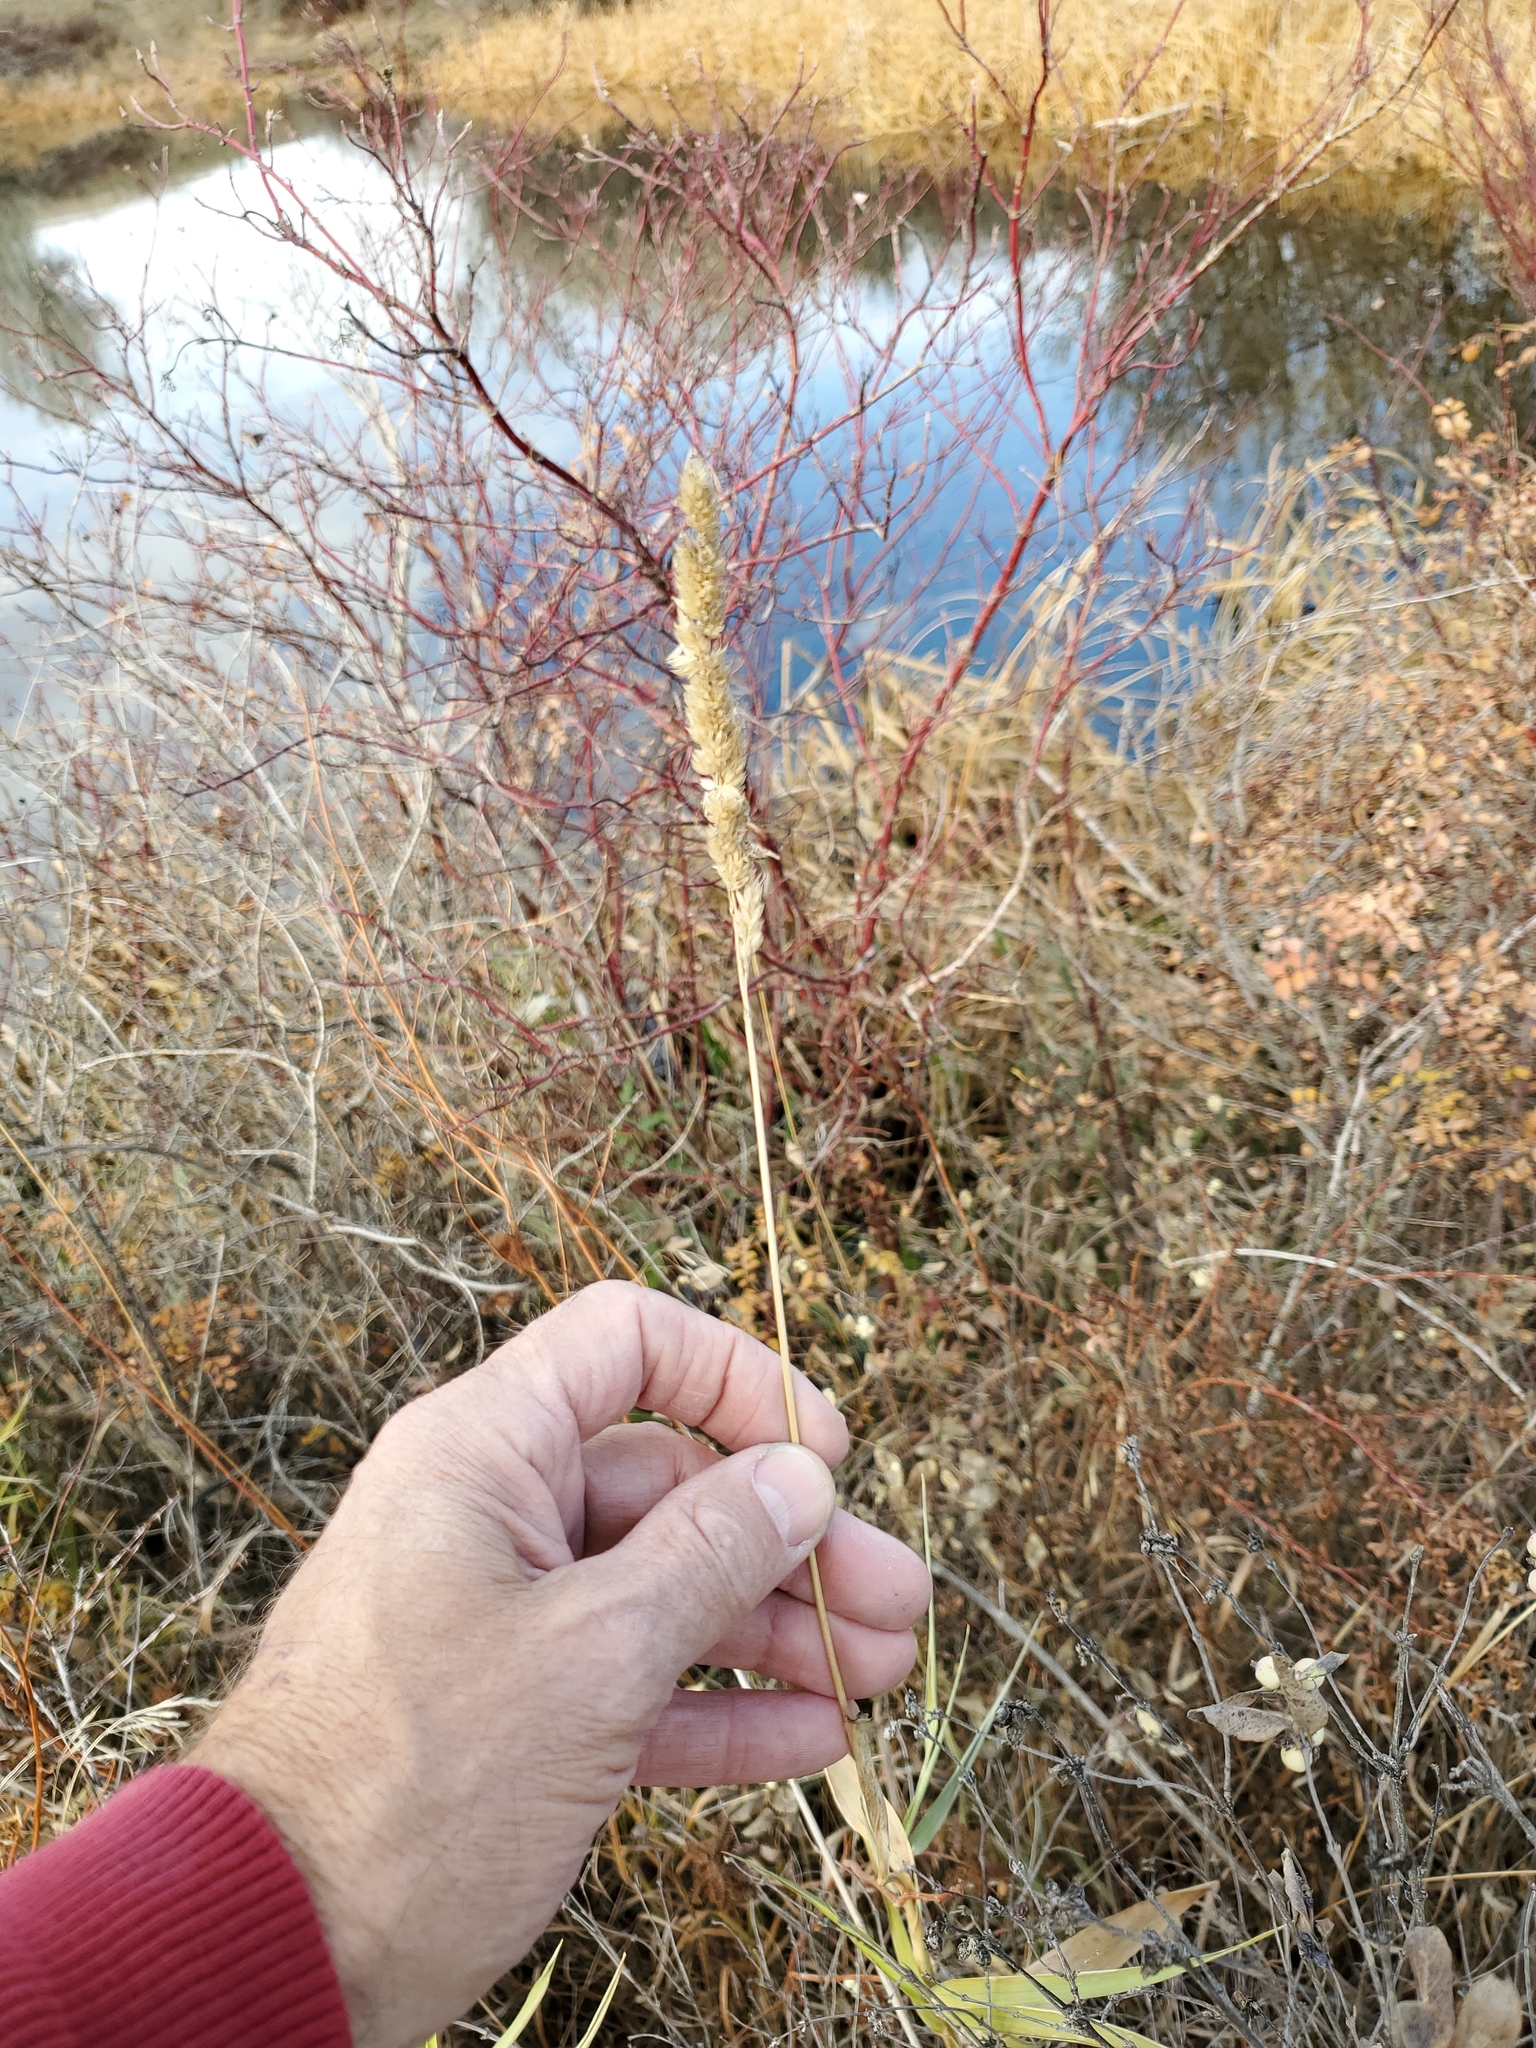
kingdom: Plantae
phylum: Tracheophyta
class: Liliopsida
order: Poales
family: Poaceae
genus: Phalaris
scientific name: Phalaris arundinacea
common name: Reed canary-grass
